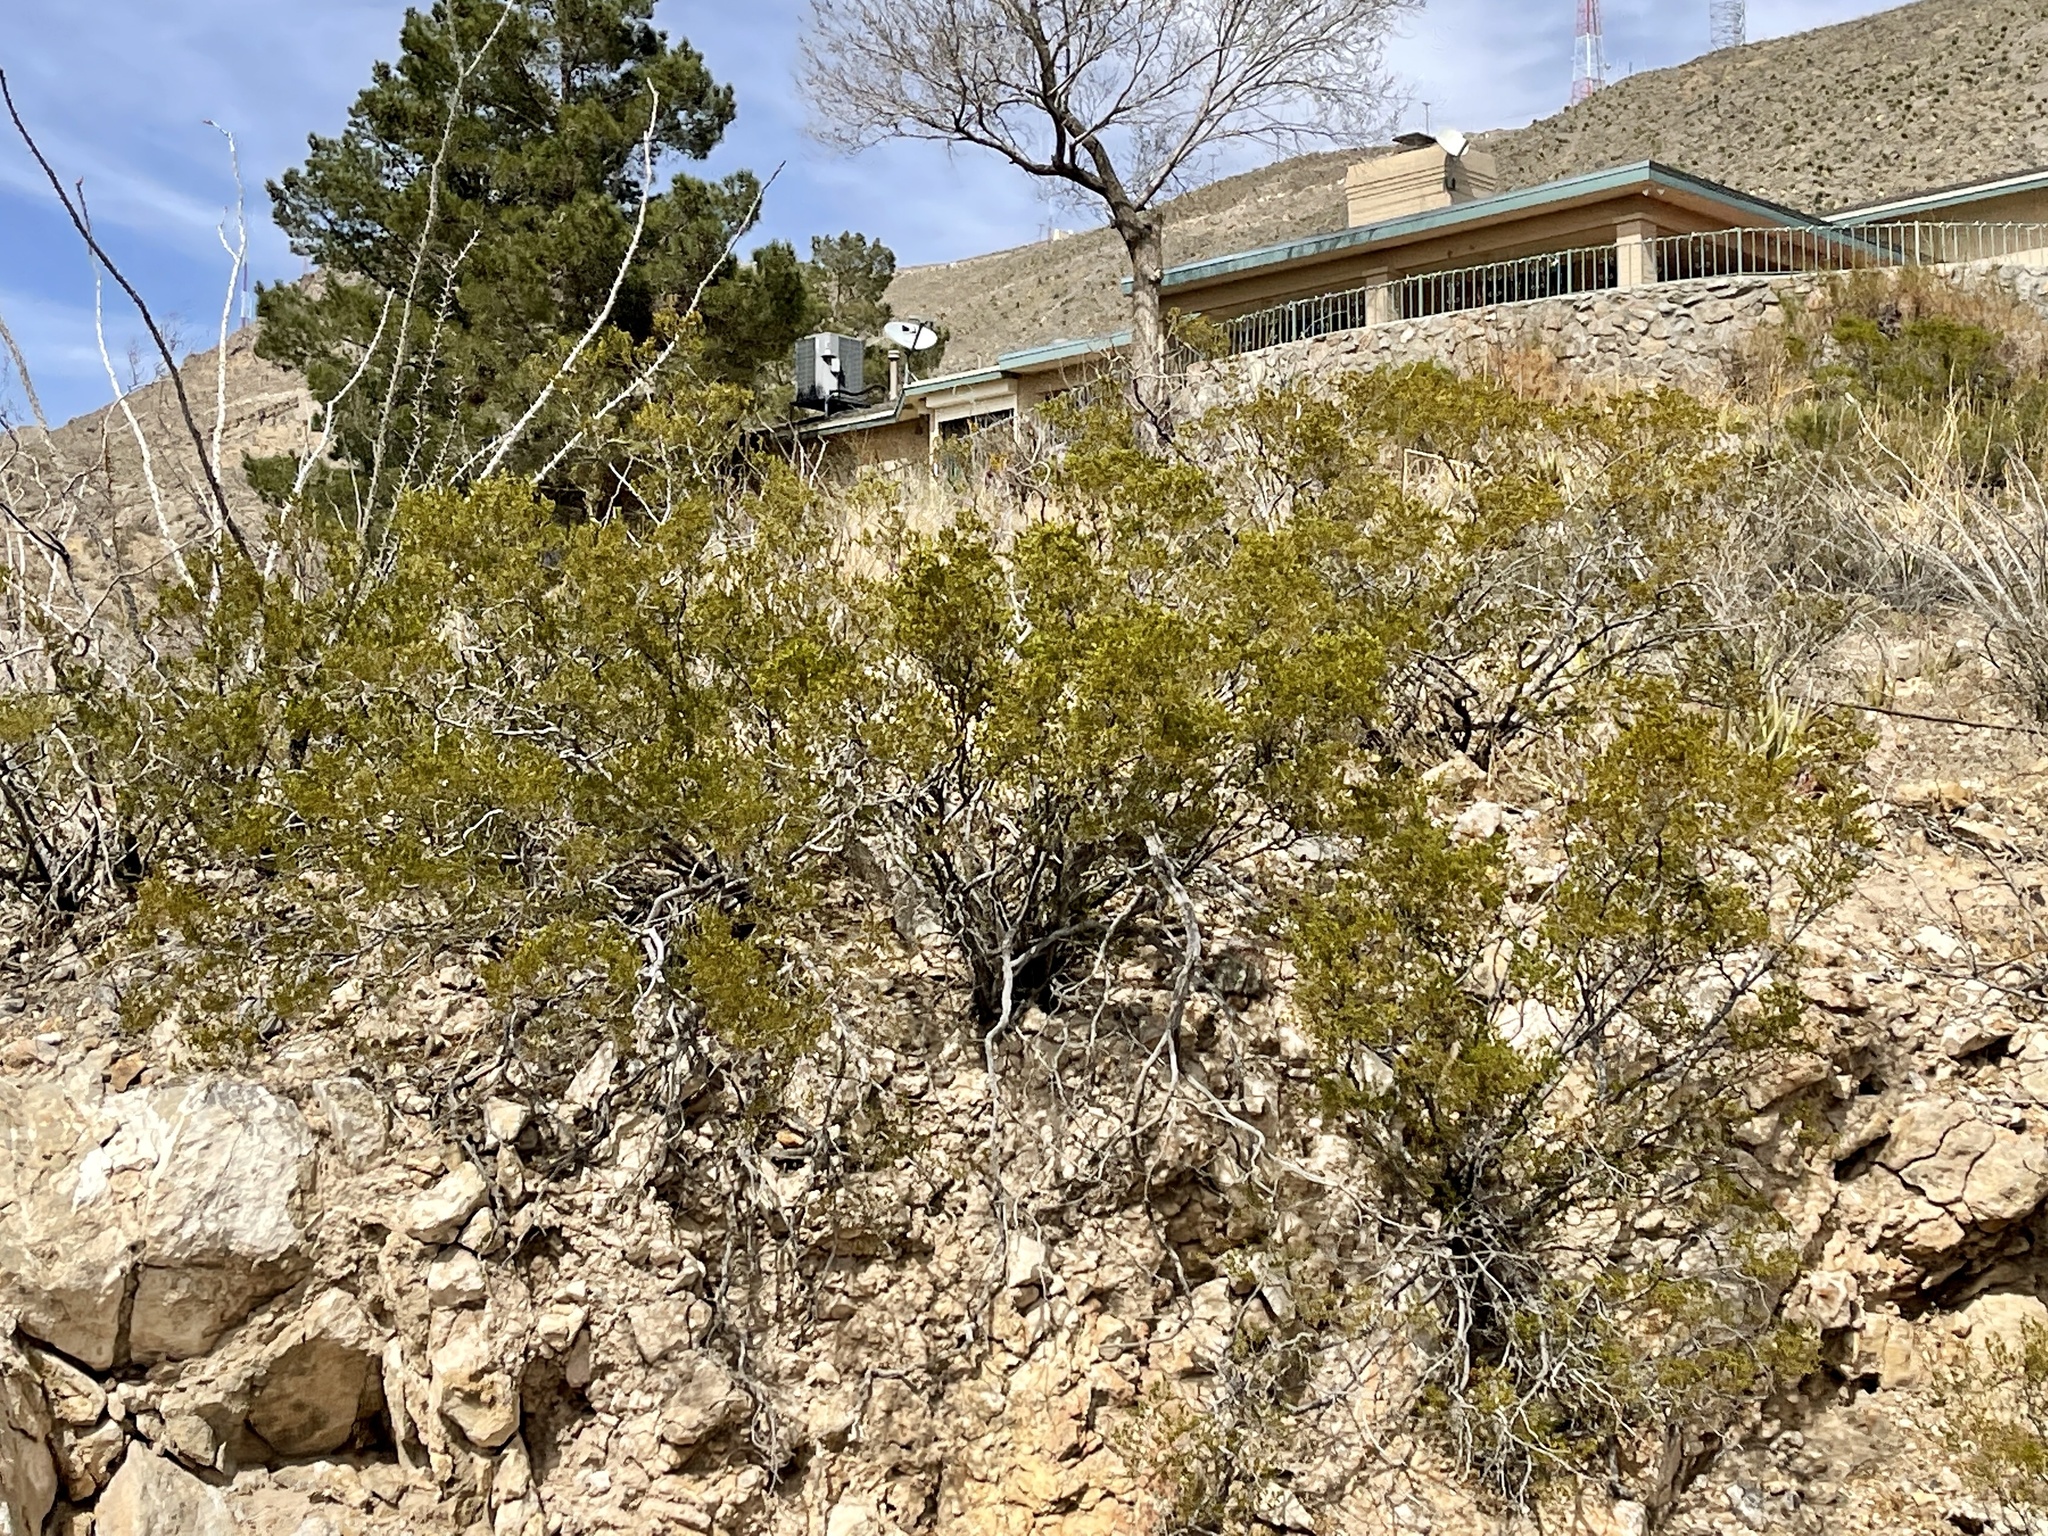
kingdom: Plantae
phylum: Tracheophyta
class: Magnoliopsida
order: Zygophyllales
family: Zygophyllaceae
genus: Larrea
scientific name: Larrea tridentata
